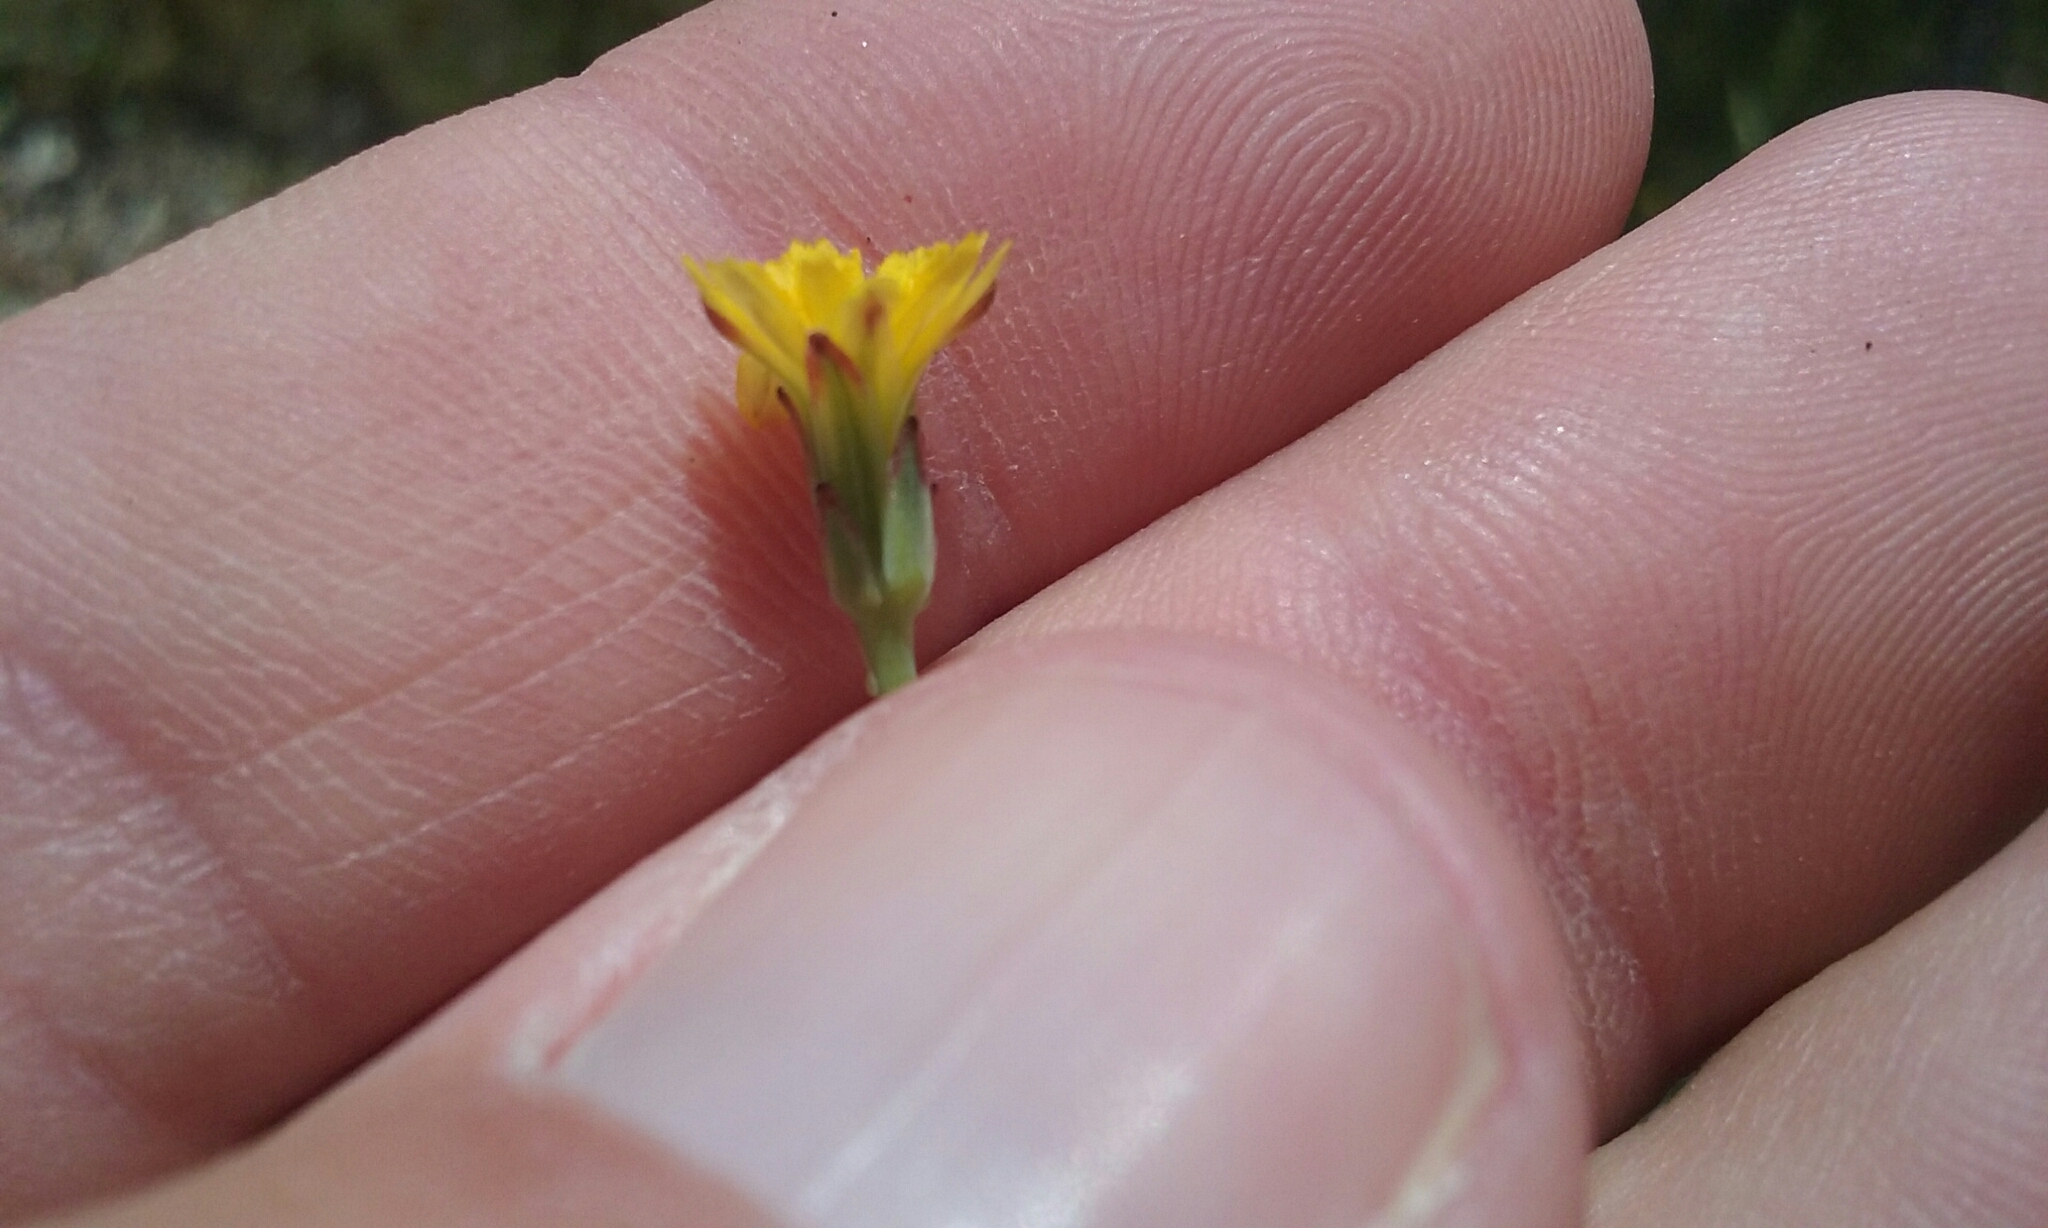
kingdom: Plantae
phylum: Tracheophyta
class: Magnoliopsida
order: Asterales
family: Asteraceae
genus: Hypochaeris
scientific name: Hypochaeris glabra
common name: Smooth catsear
